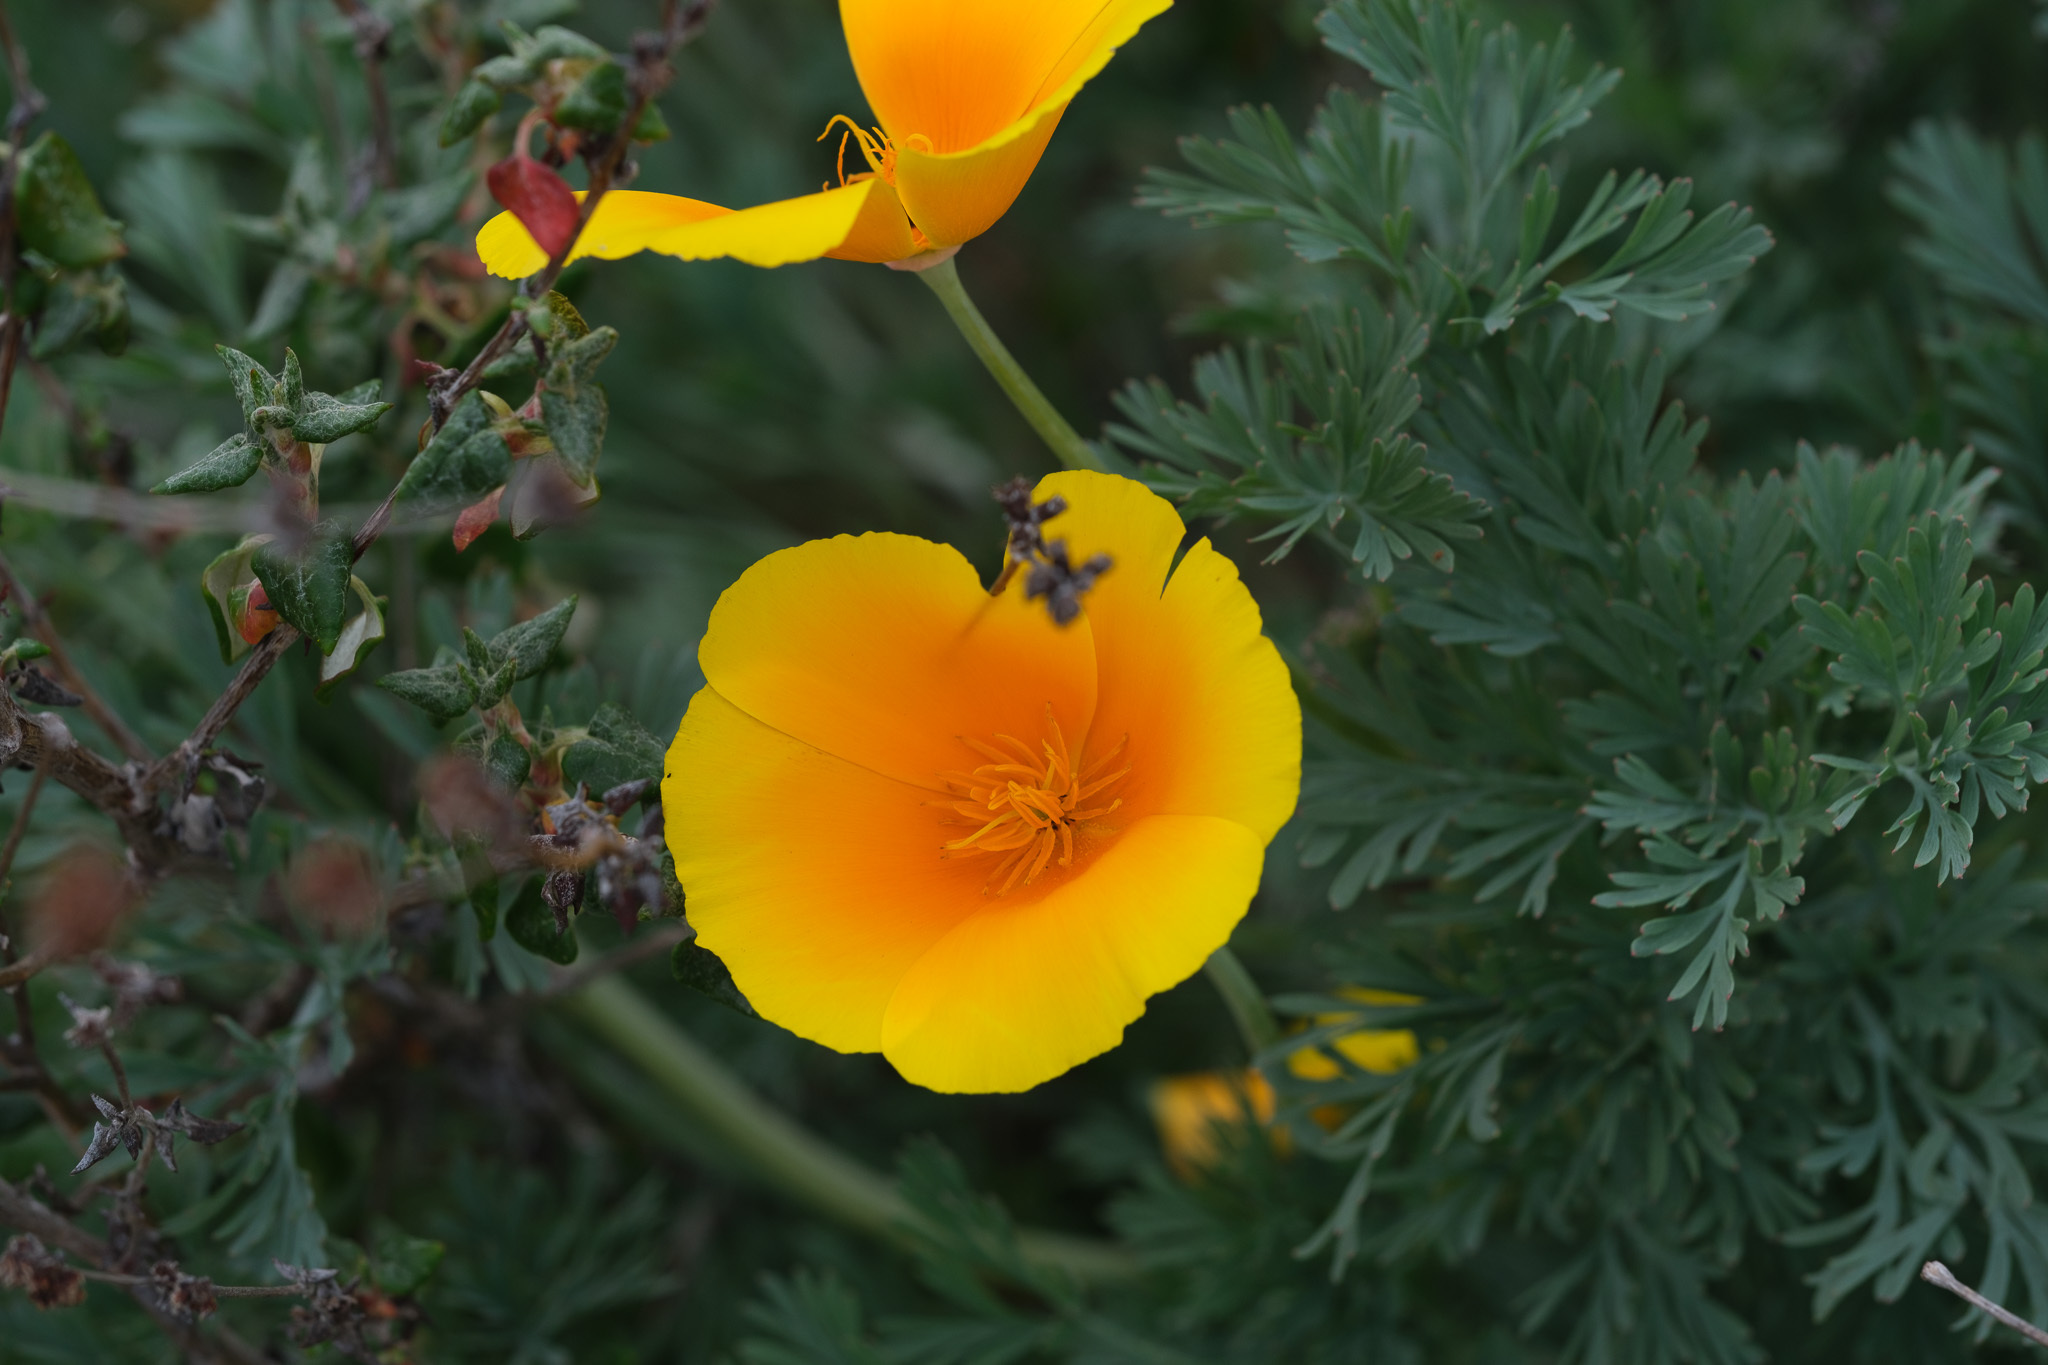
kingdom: Plantae
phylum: Tracheophyta
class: Magnoliopsida
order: Ranunculales
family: Papaveraceae
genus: Eschscholzia
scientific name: Eschscholzia californica
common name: California poppy
